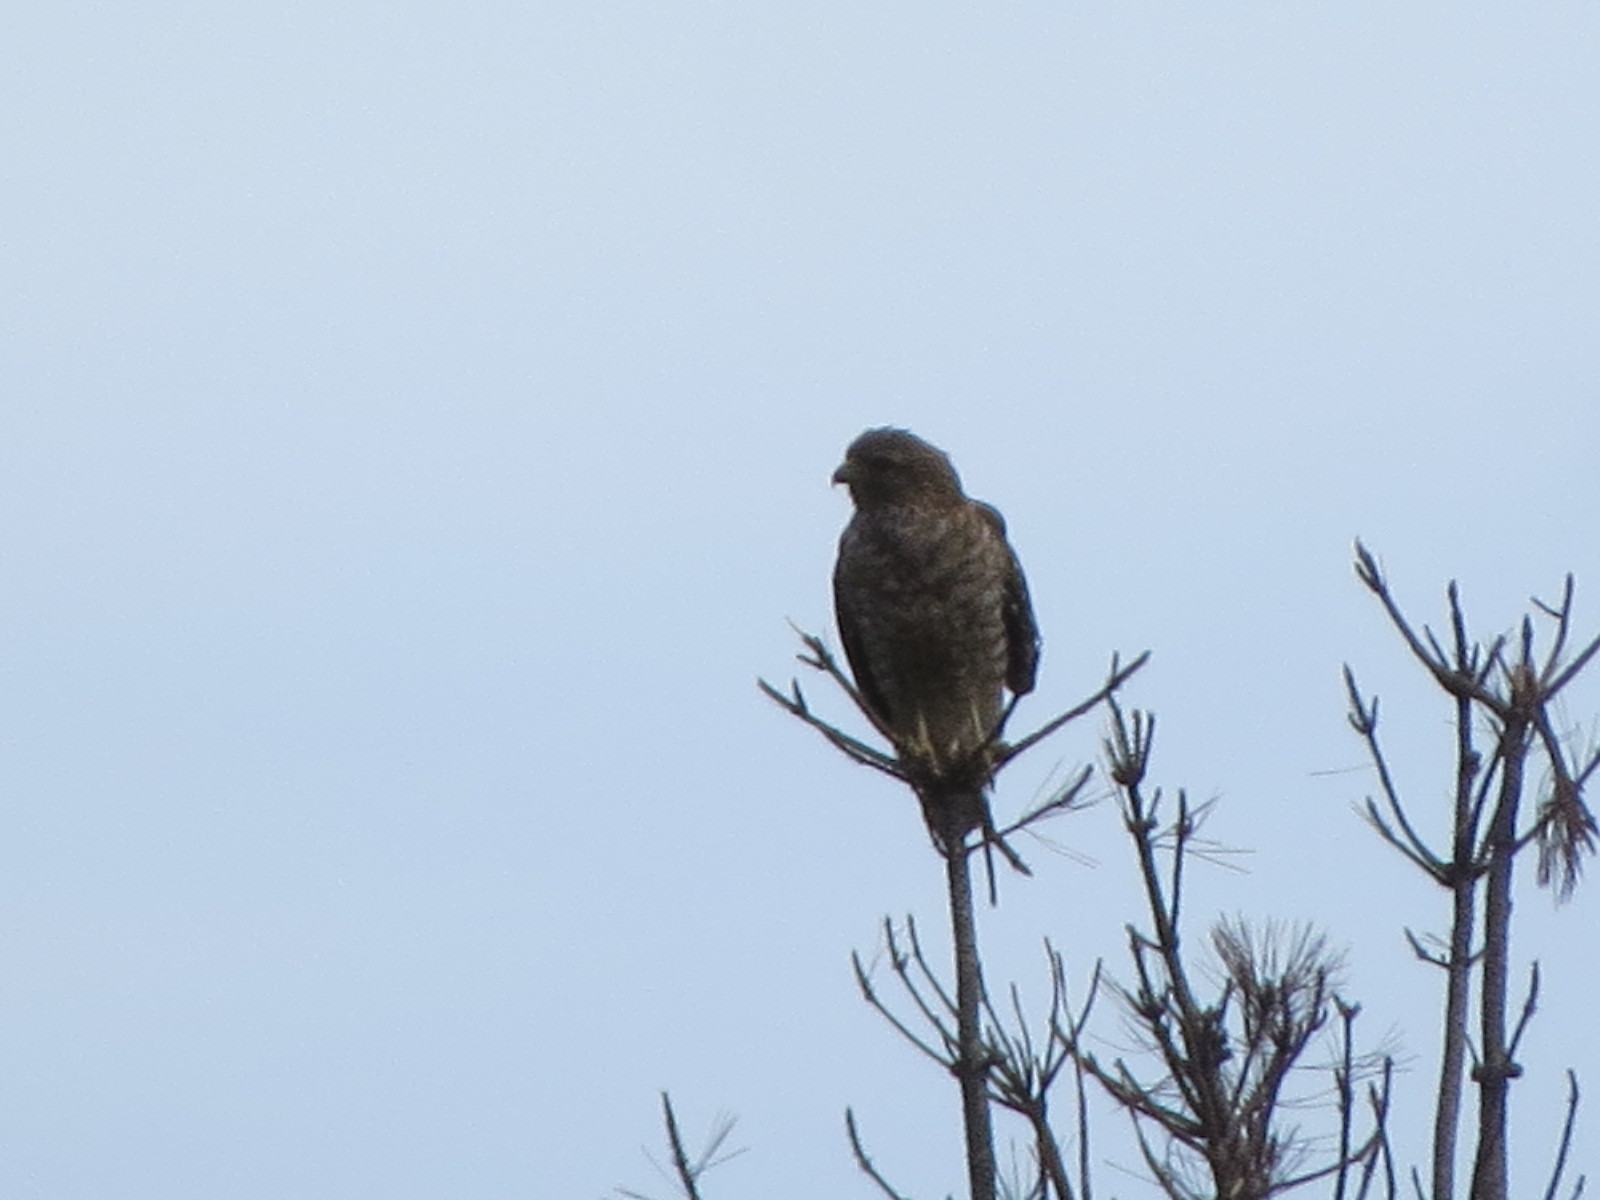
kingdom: Animalia
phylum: Chordata
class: Aves
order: Accipitriformes
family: Accipitridae
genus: Buteo
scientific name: Buteo lineatus
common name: Red-shouldered hawk
